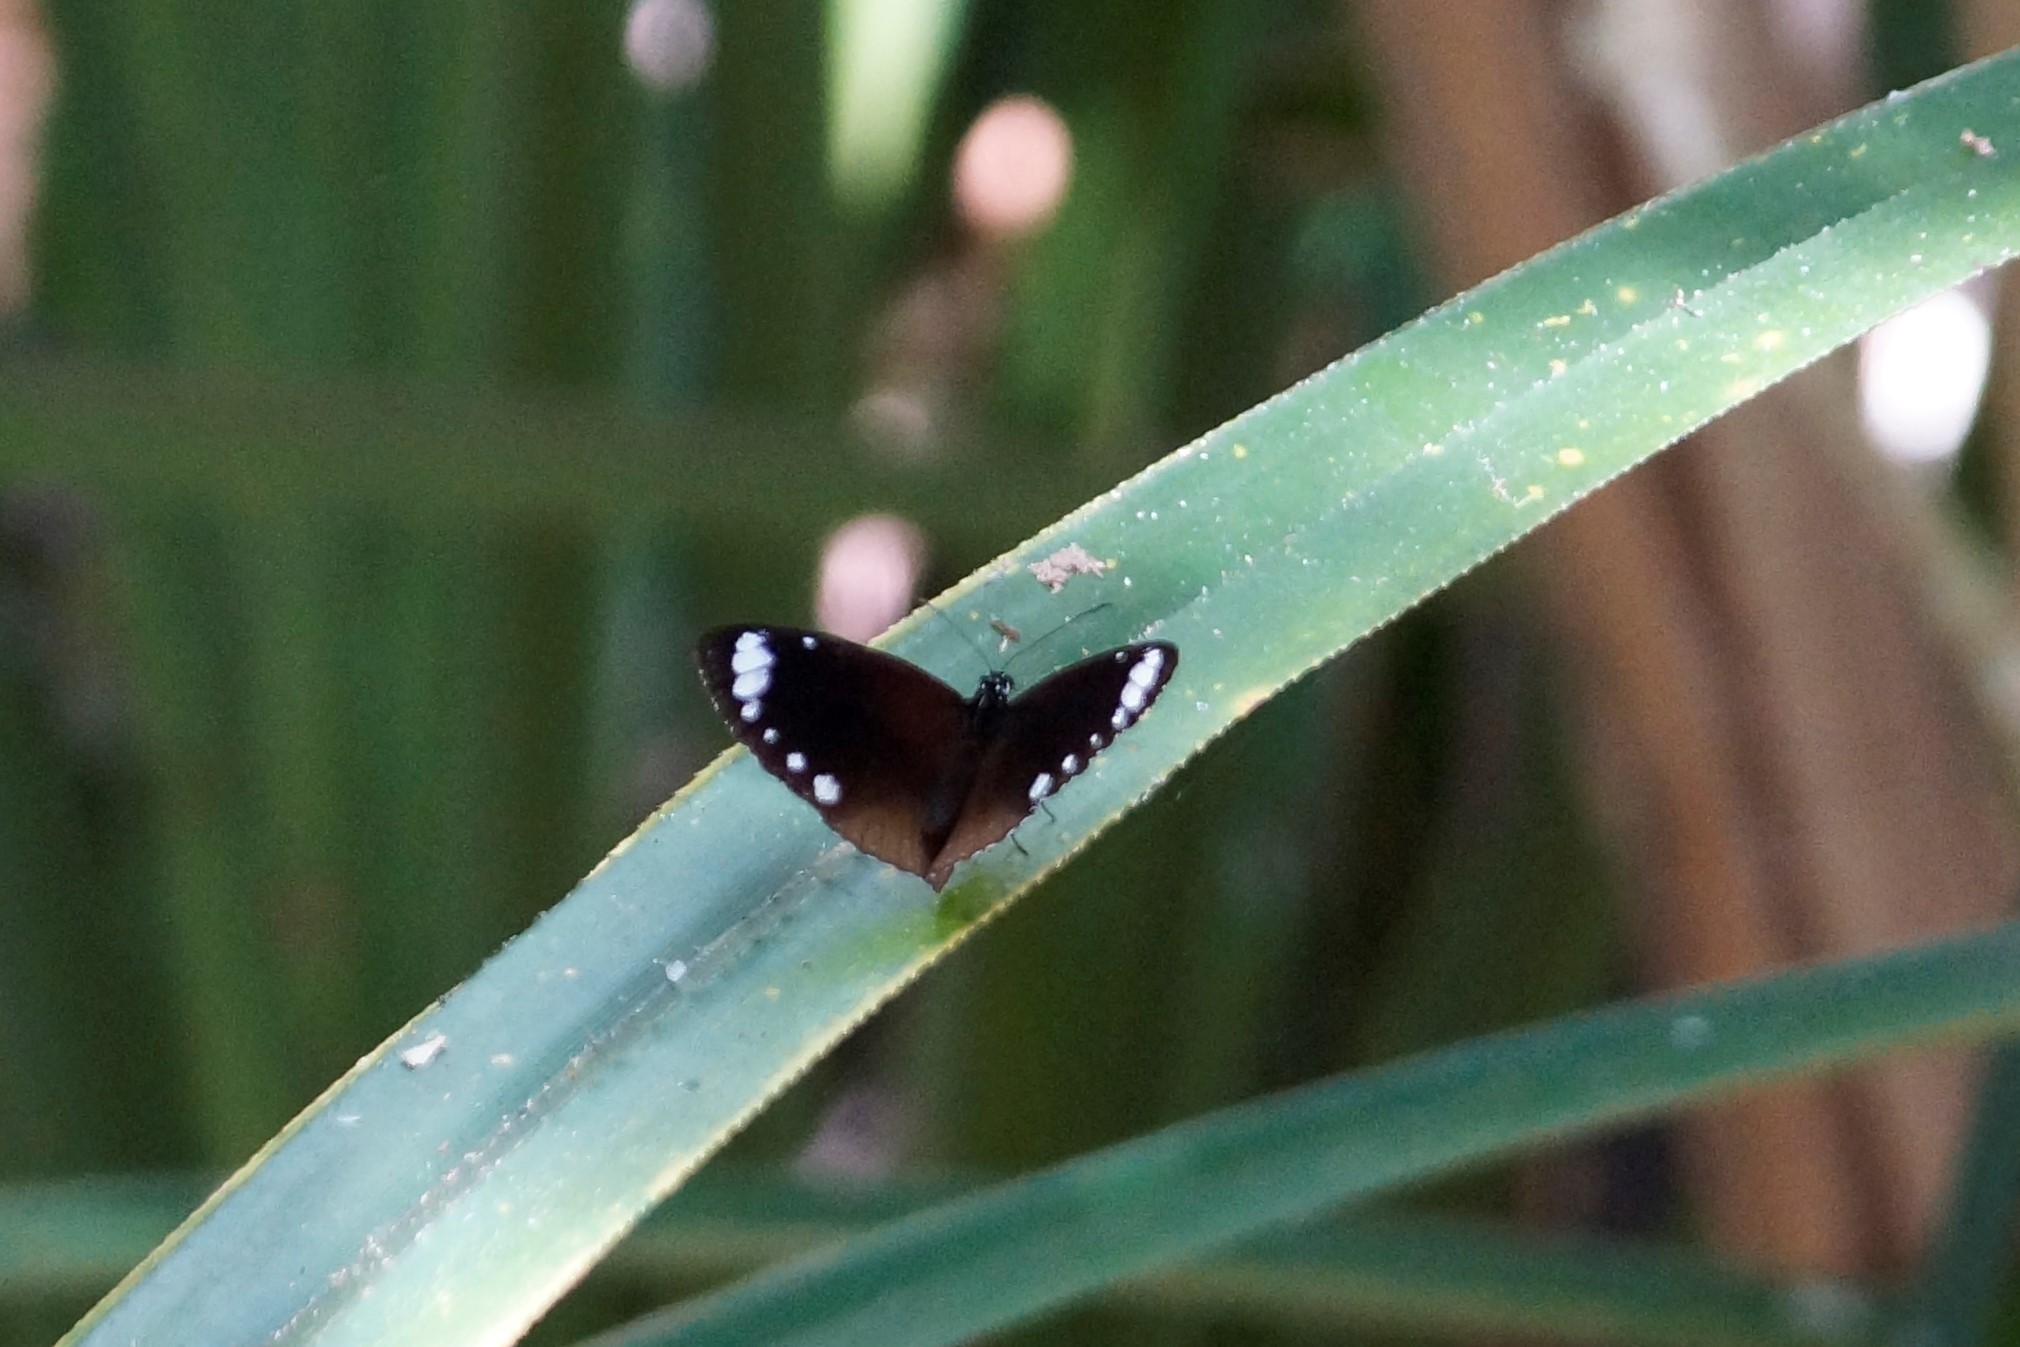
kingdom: Animalia
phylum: Arthropoda
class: Insecta
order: Lepidoptera
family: Nymphalidae
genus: Euploea
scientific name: Euploea tulliolus
